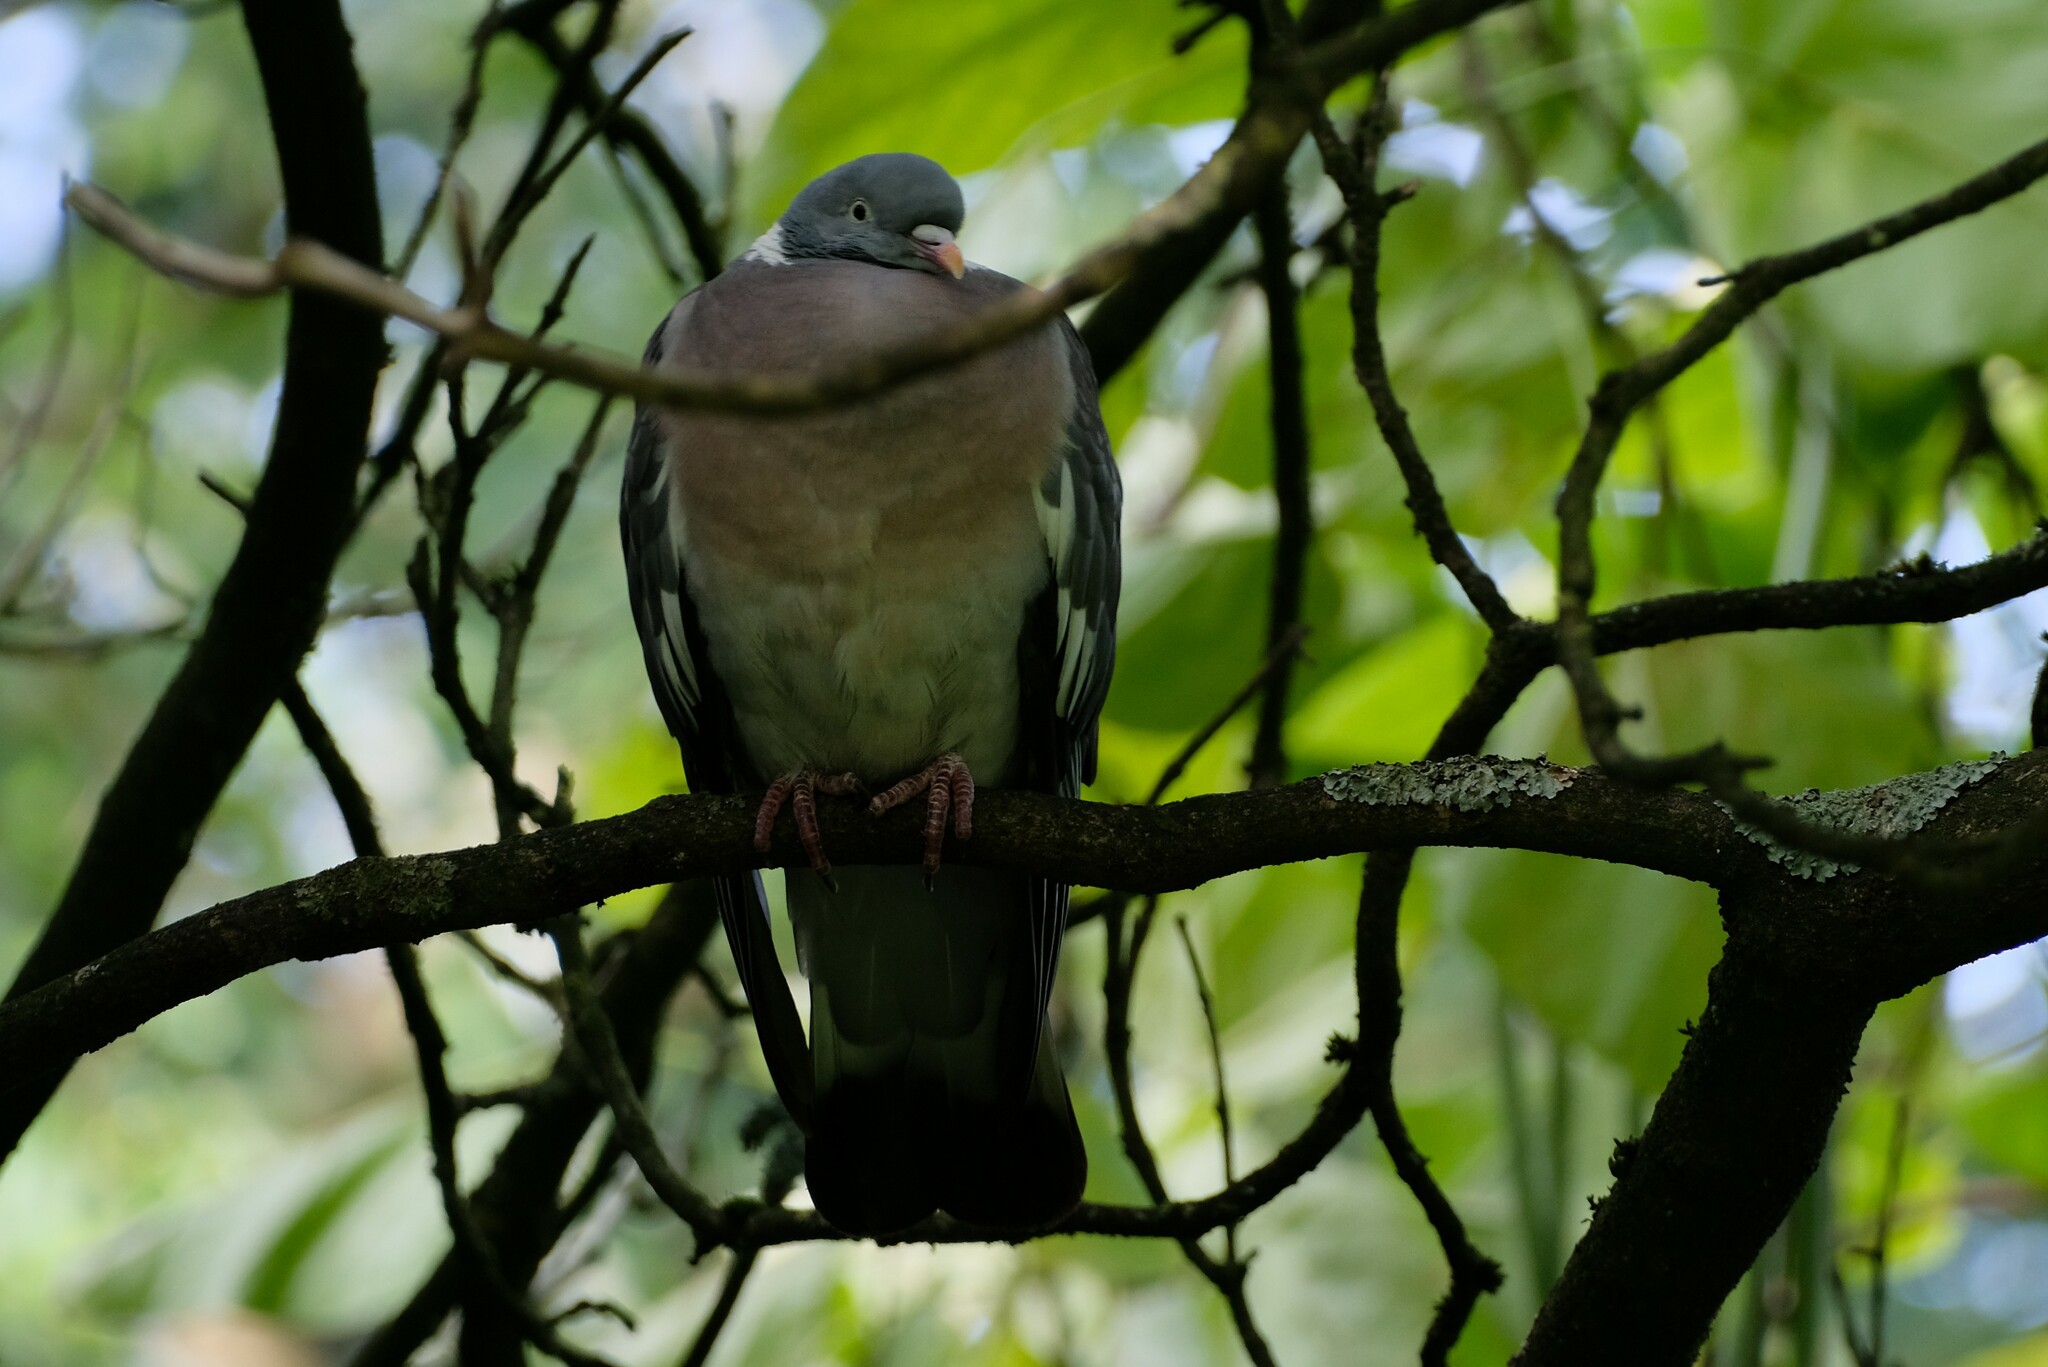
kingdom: Animalia
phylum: Chordata
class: Aves
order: Columbiformes
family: Columbidae
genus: Columba
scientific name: Columba palumbus
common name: Common wood pigeon
